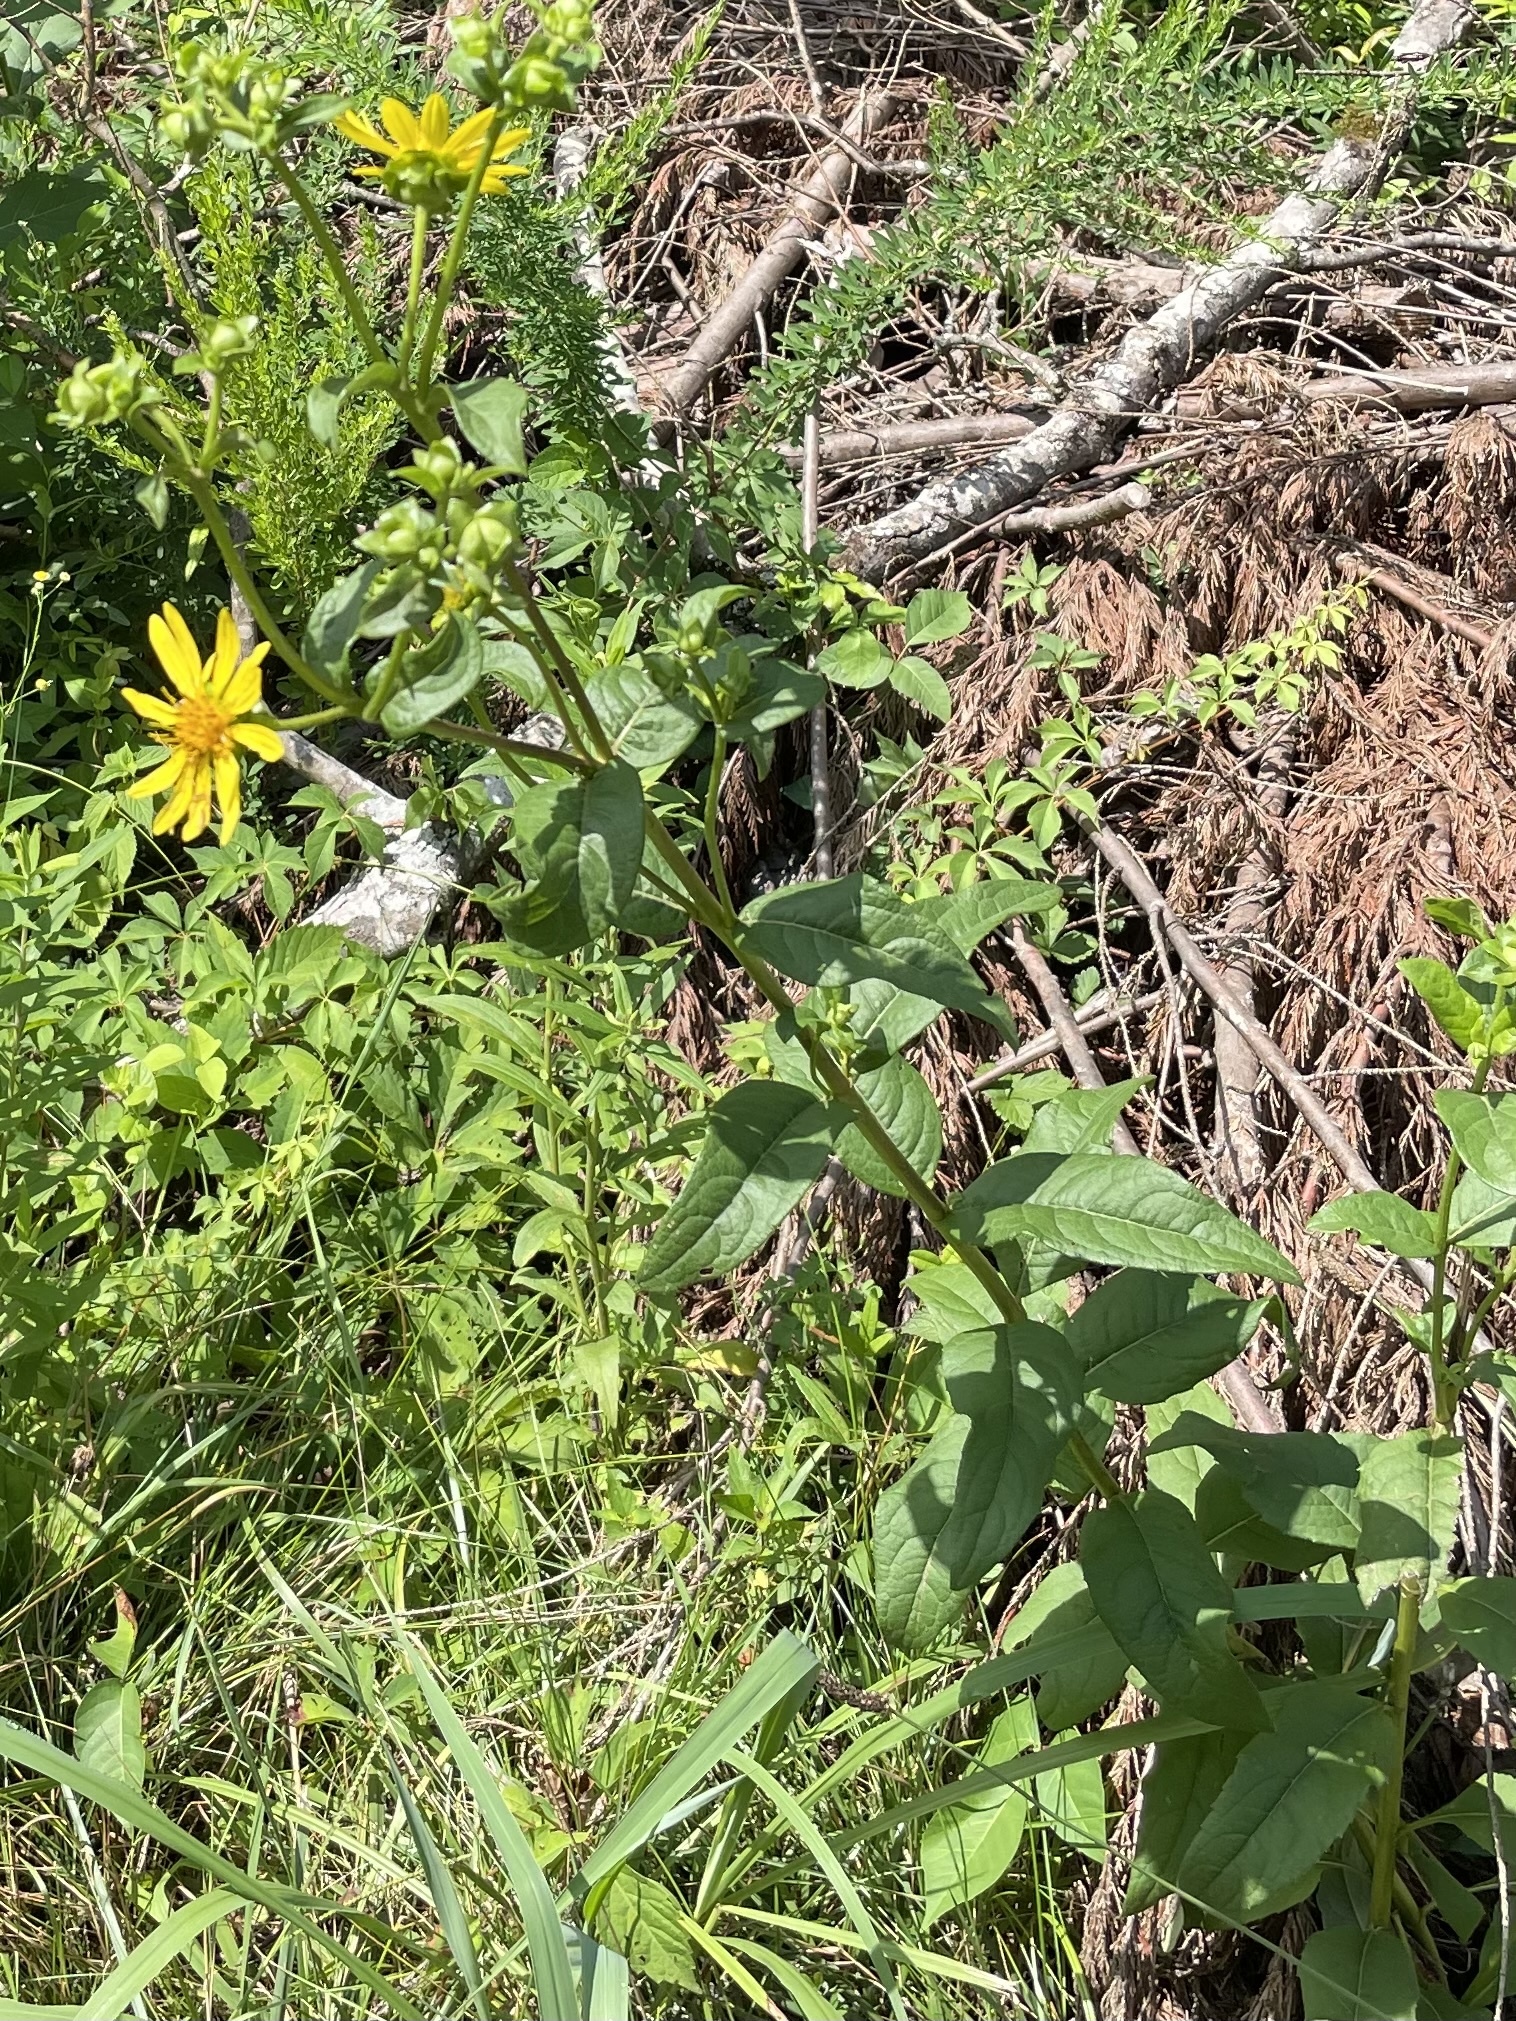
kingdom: Plantae
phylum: Tracheophyta
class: Magnoliopsida
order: Asterales
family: Asteraceae
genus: Silphium
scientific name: Silphium asteriscus
